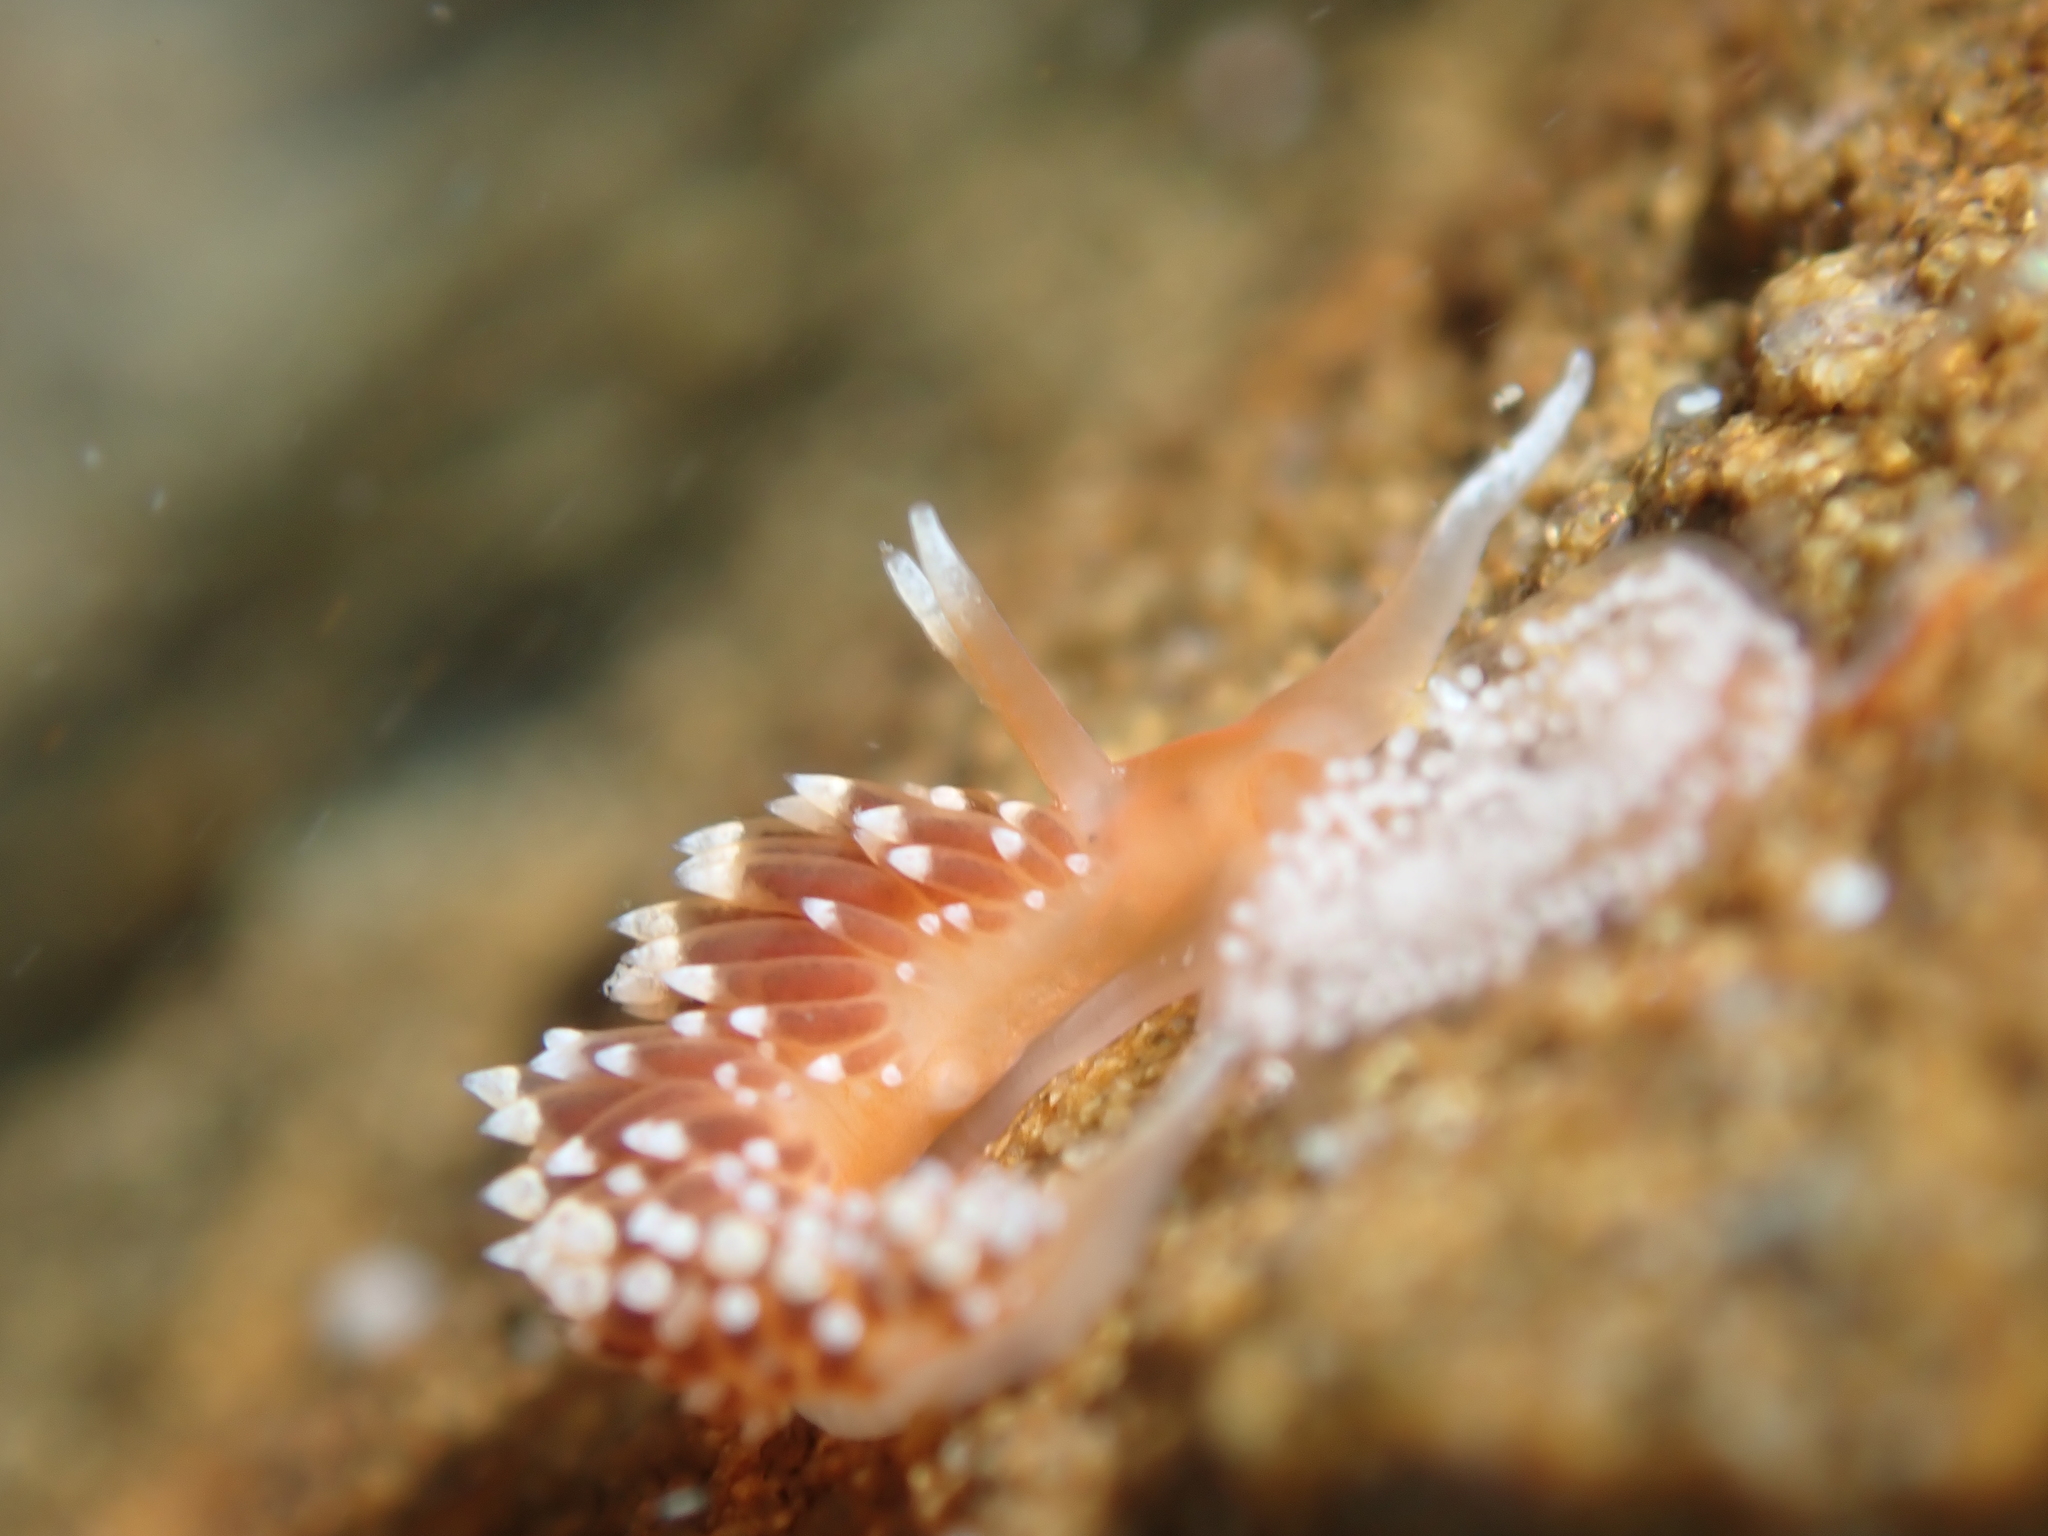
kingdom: Animalia
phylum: Mollusca
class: Gastropoda
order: Nudibranchia
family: Facelinidae
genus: Phidiana
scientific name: Phidiana milleri
